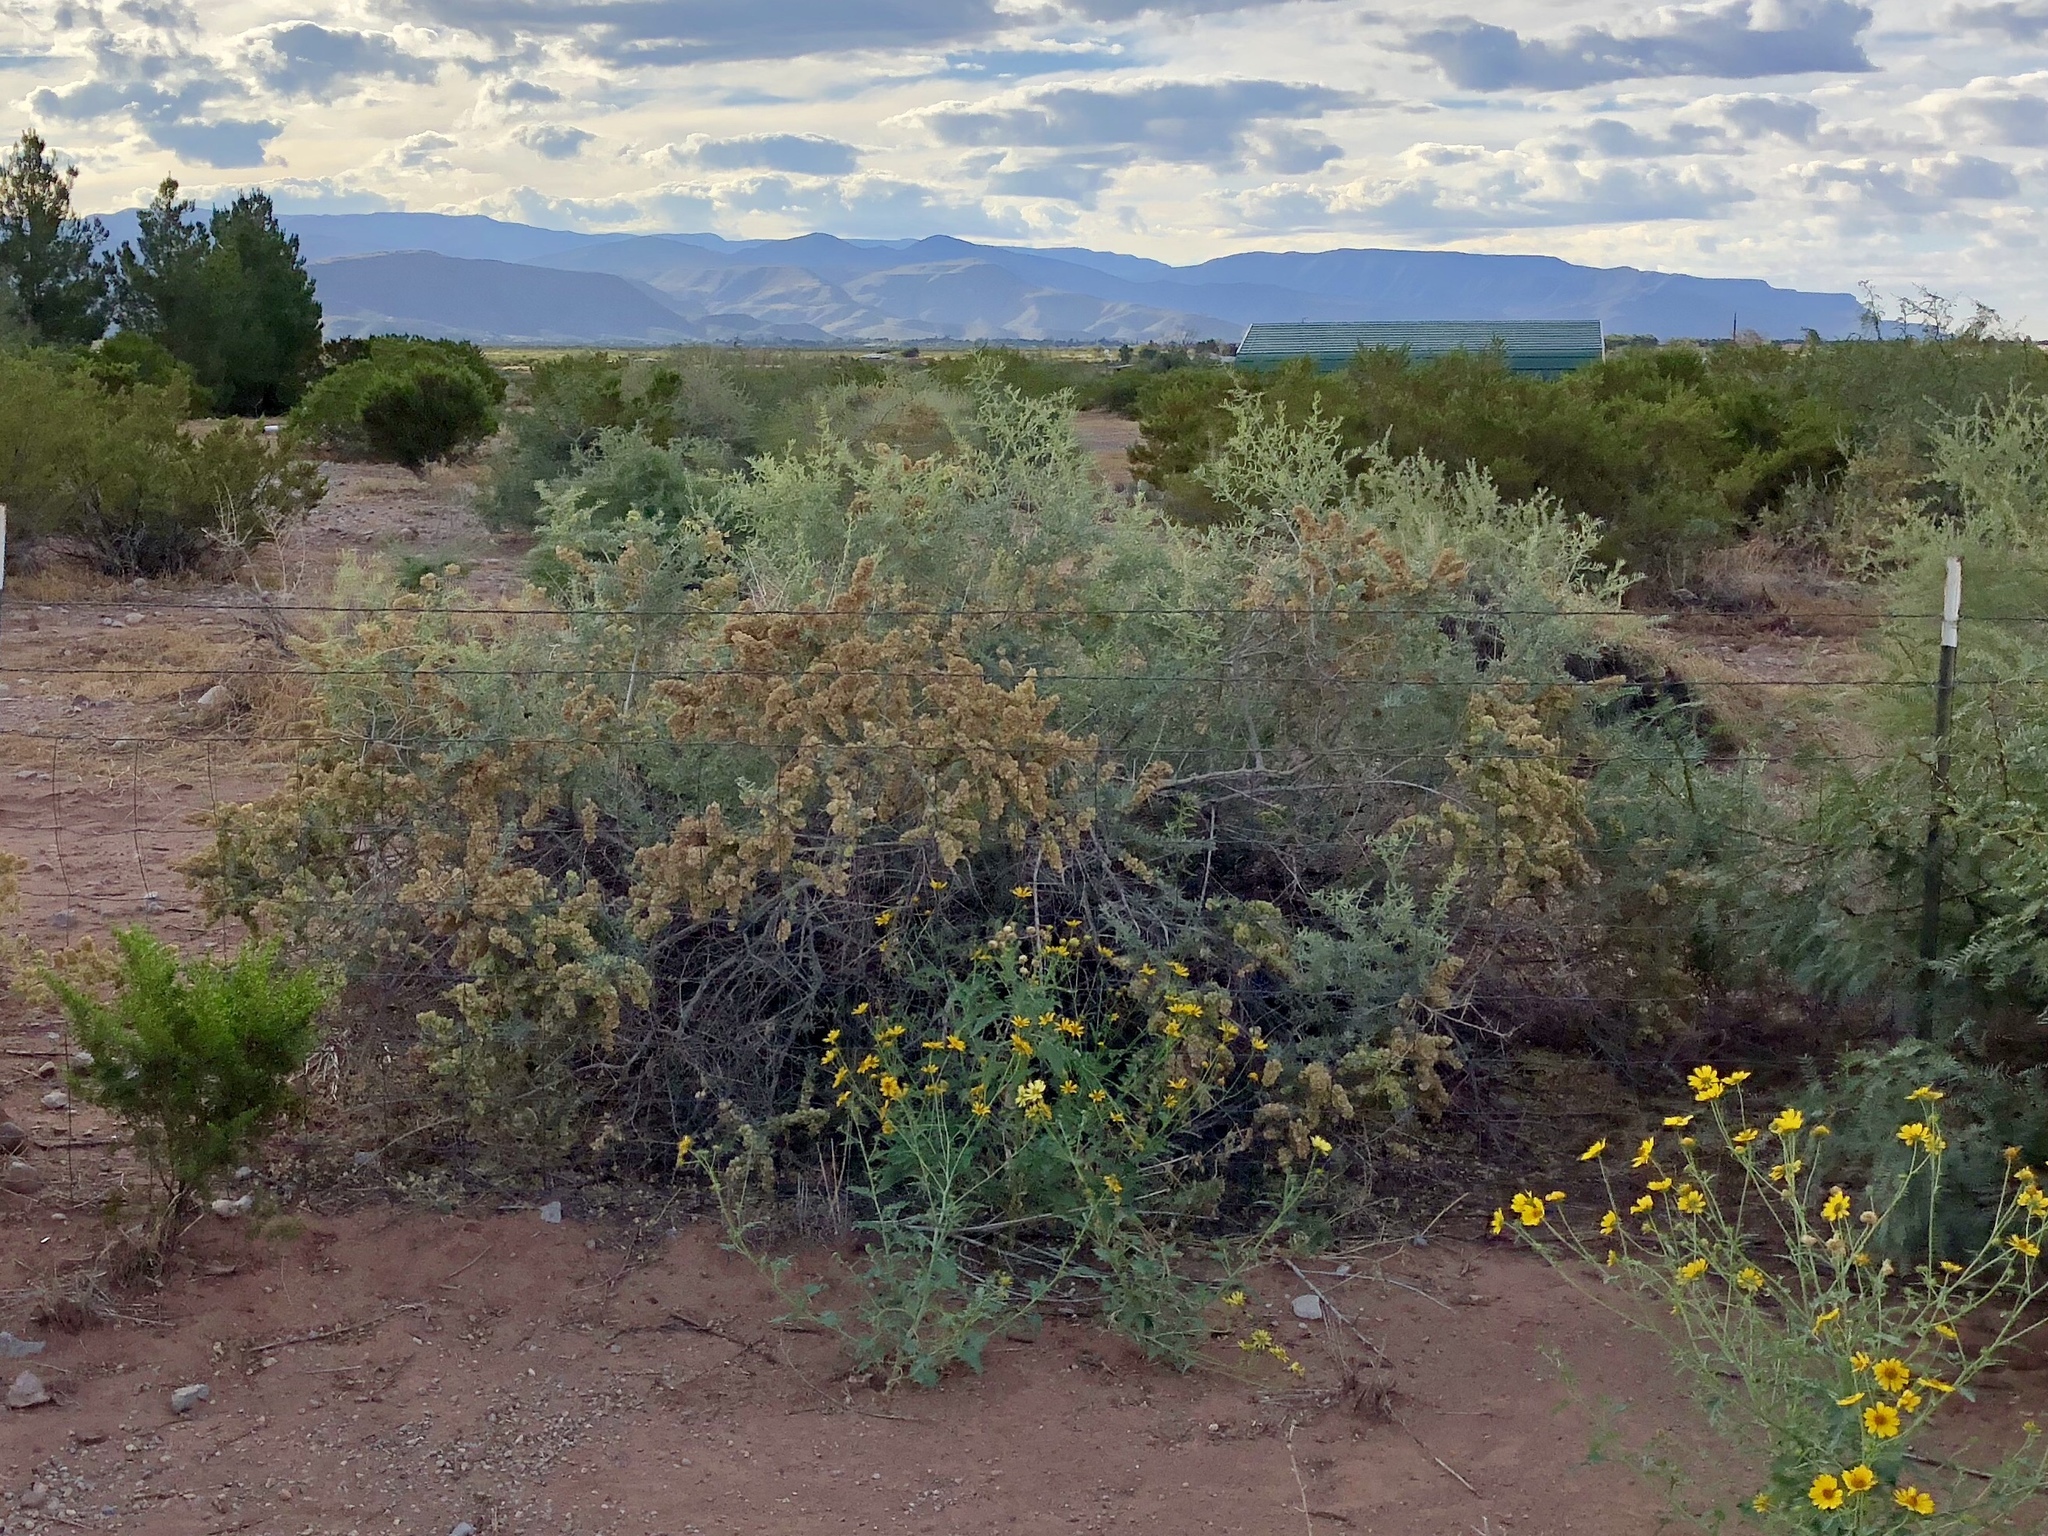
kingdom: Plantae
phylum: Tracheophyta
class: Magnoliopsida
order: Caryophyllales
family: Amaranthaceae
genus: Atriplex
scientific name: Atriplex canescens
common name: Four-wing saltbush
